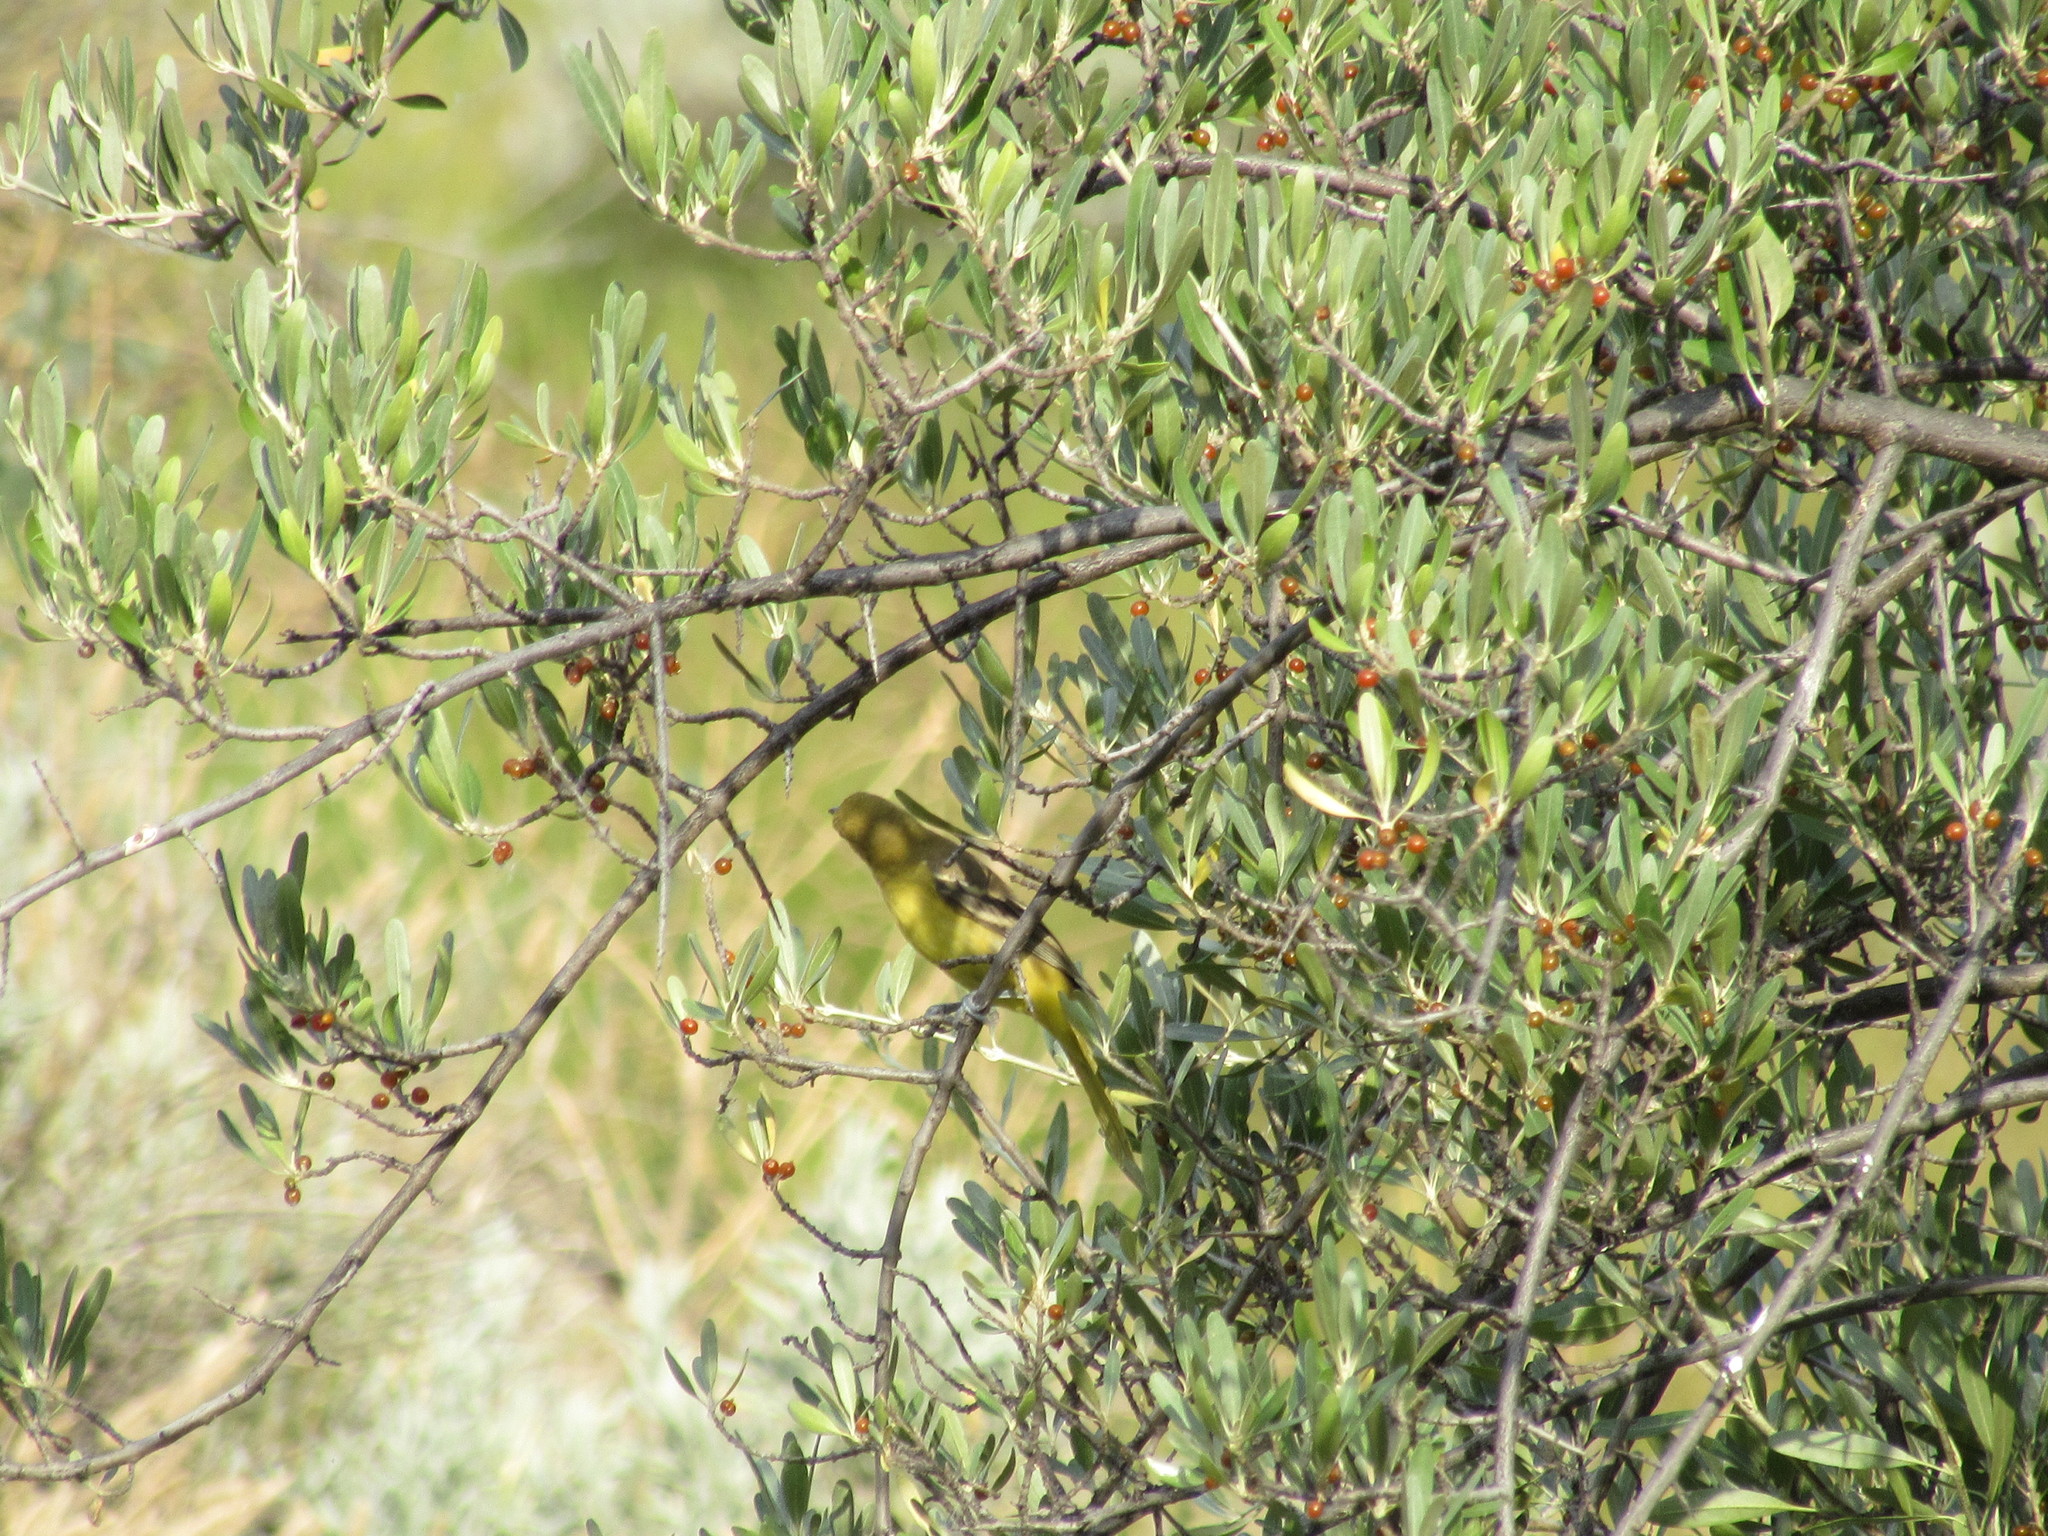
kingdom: Animalia
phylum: Chordata
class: Aves
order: Passeriformes
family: Icteridae
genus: Icterus
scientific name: Icterus spurius
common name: Orchard oriole
